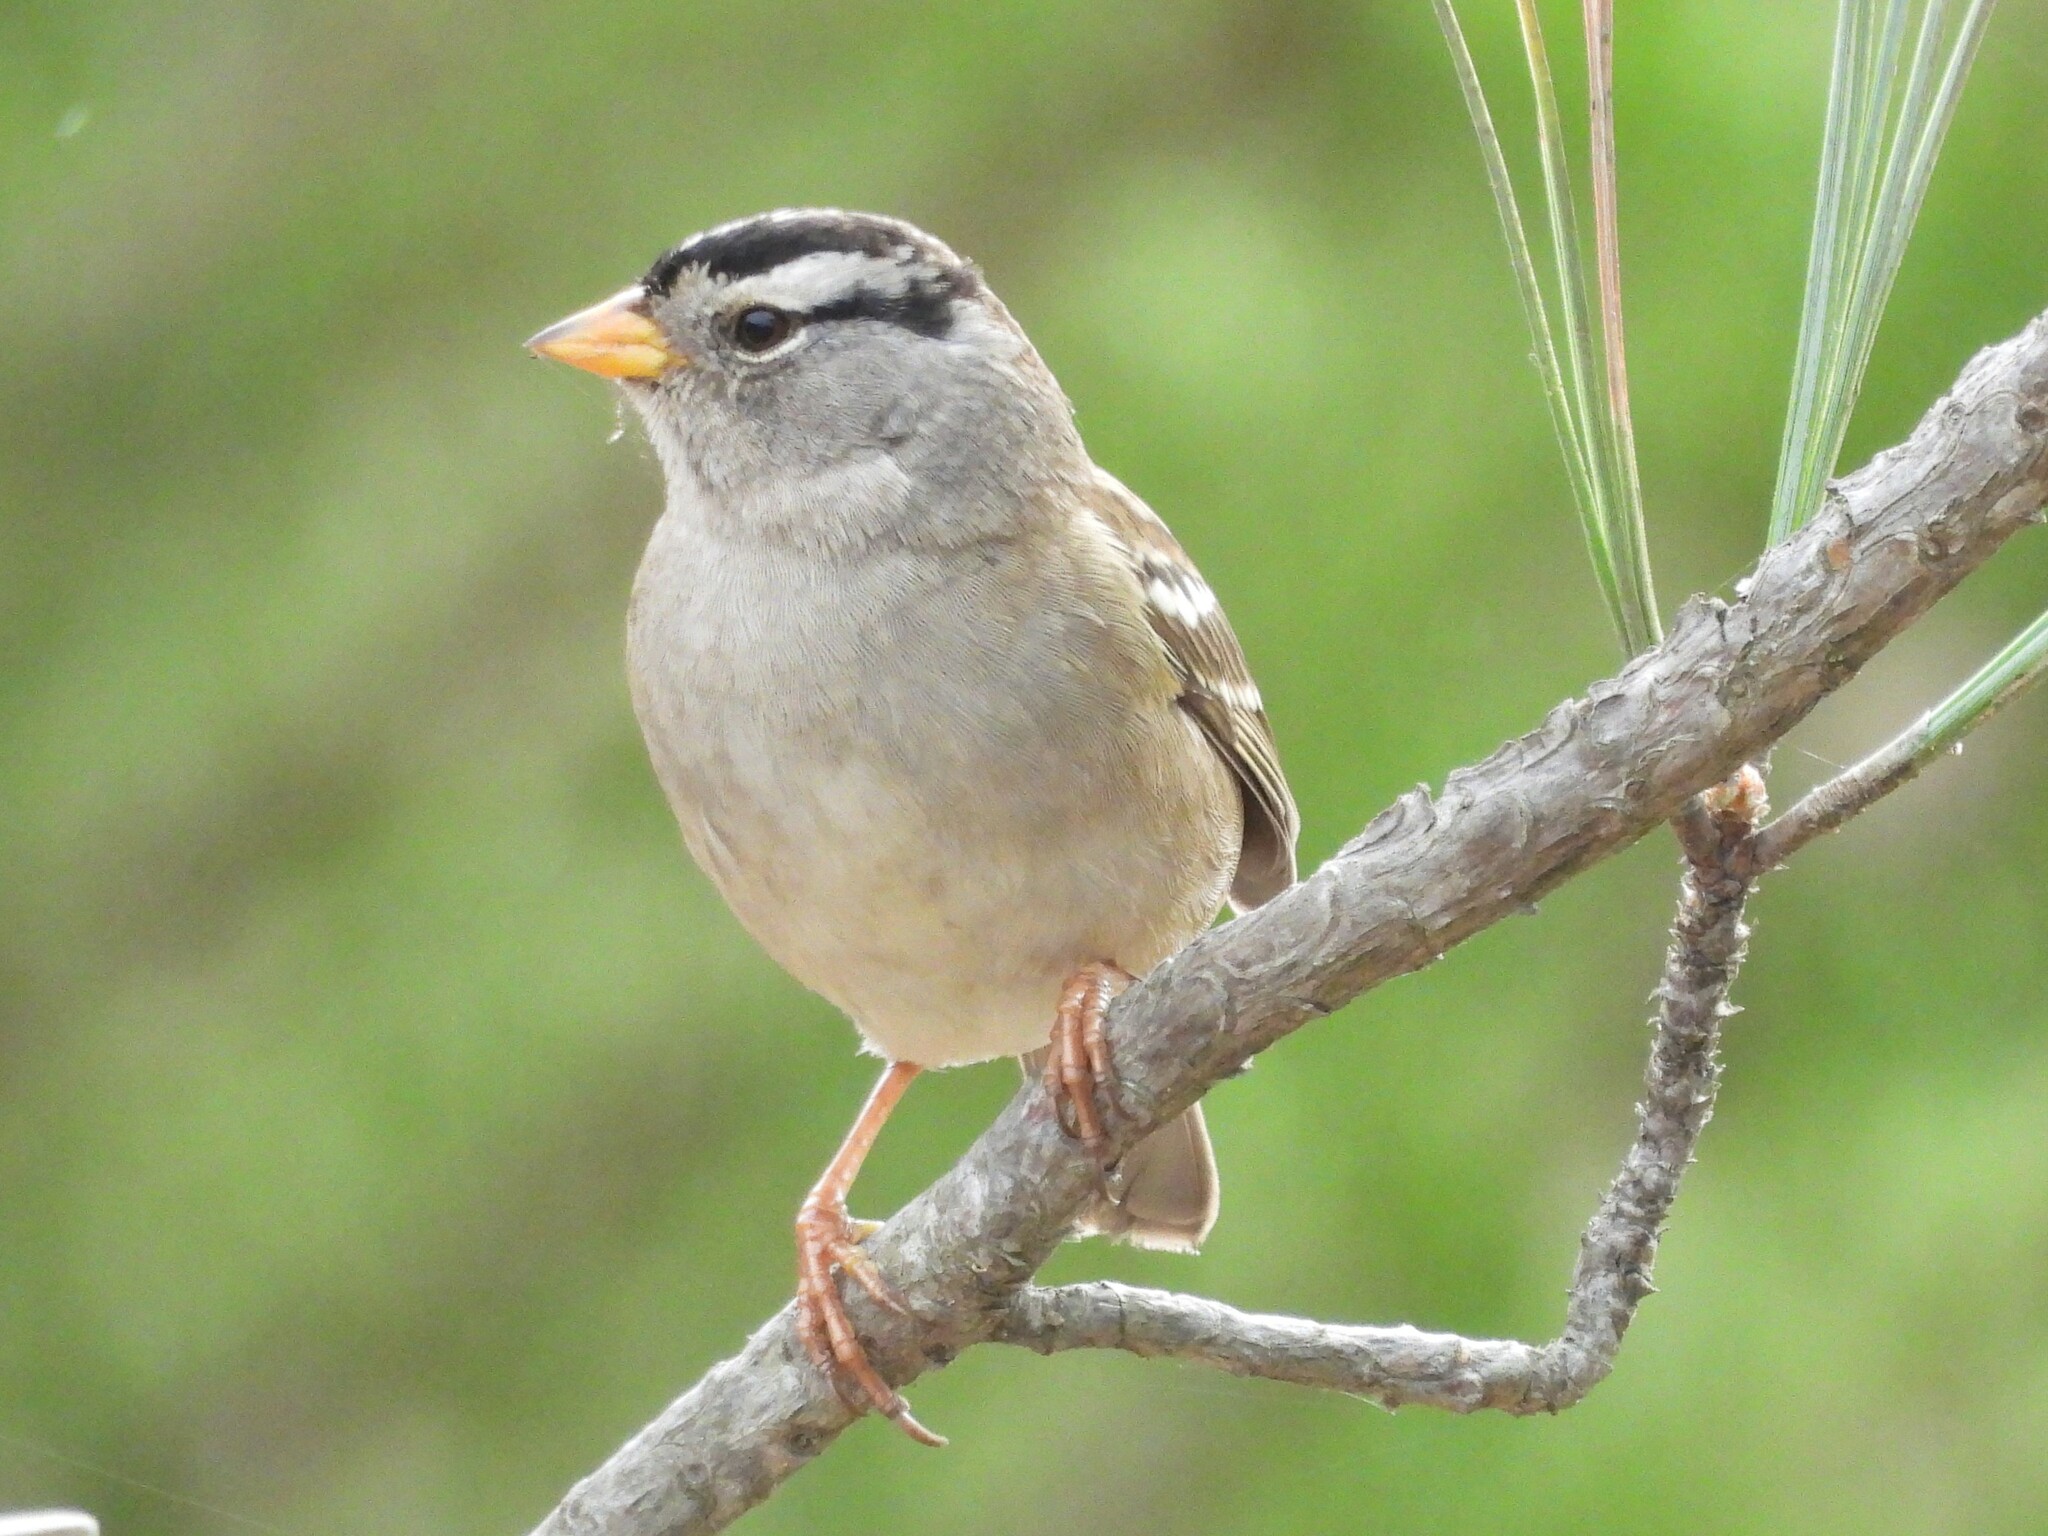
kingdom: Animalia
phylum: Chordata
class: Aves
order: Passeriformes
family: Passerellidae
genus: Zonotrichia
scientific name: Zonotrichia leucophrys
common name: White-crowned sparrow
